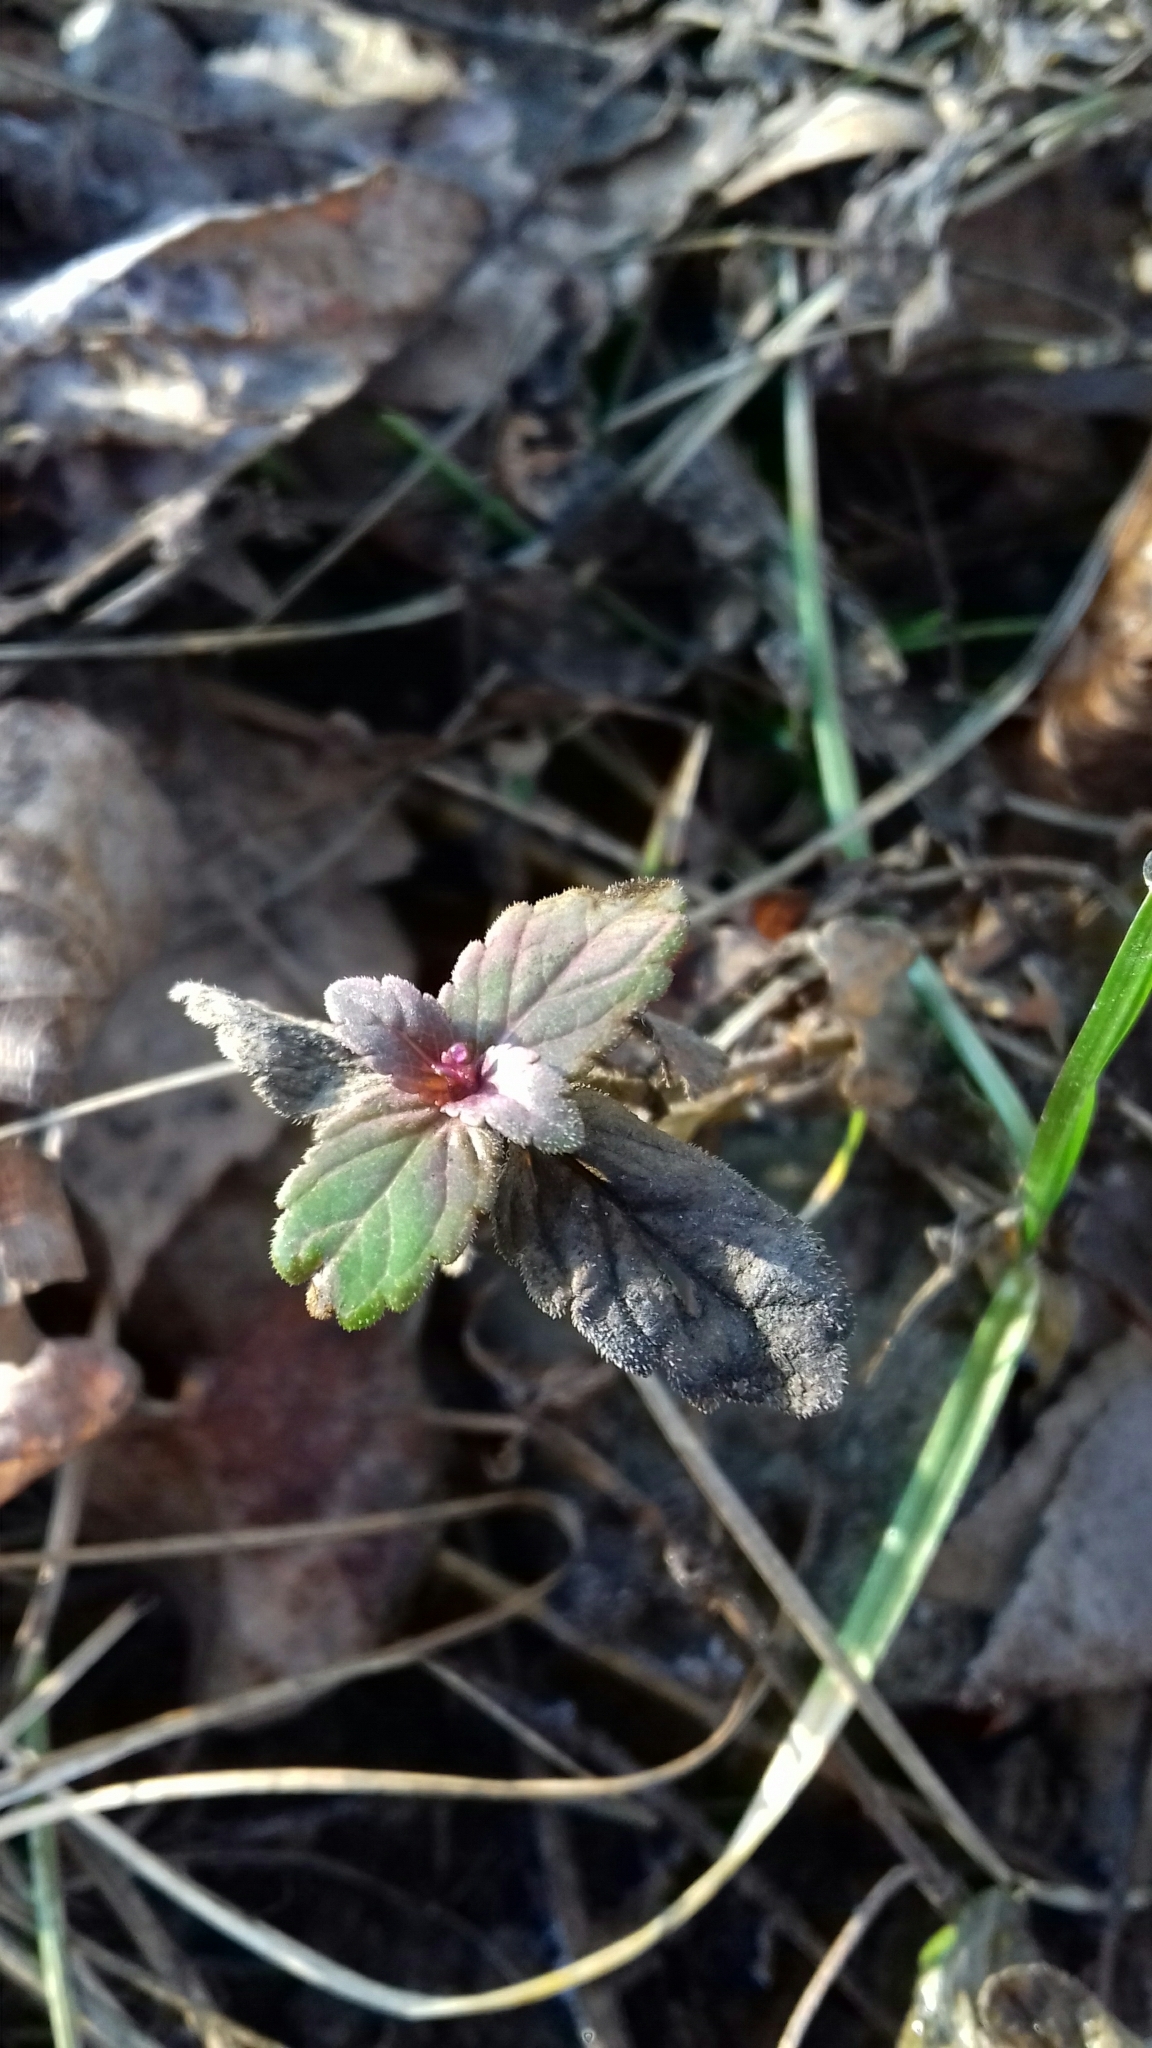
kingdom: Plantae
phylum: Tracheophyta
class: Magnoliopsida
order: Lamiales
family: Plantaginaceae
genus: Veronica
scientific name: Veronica chamaedrys
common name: Germander speedwell
